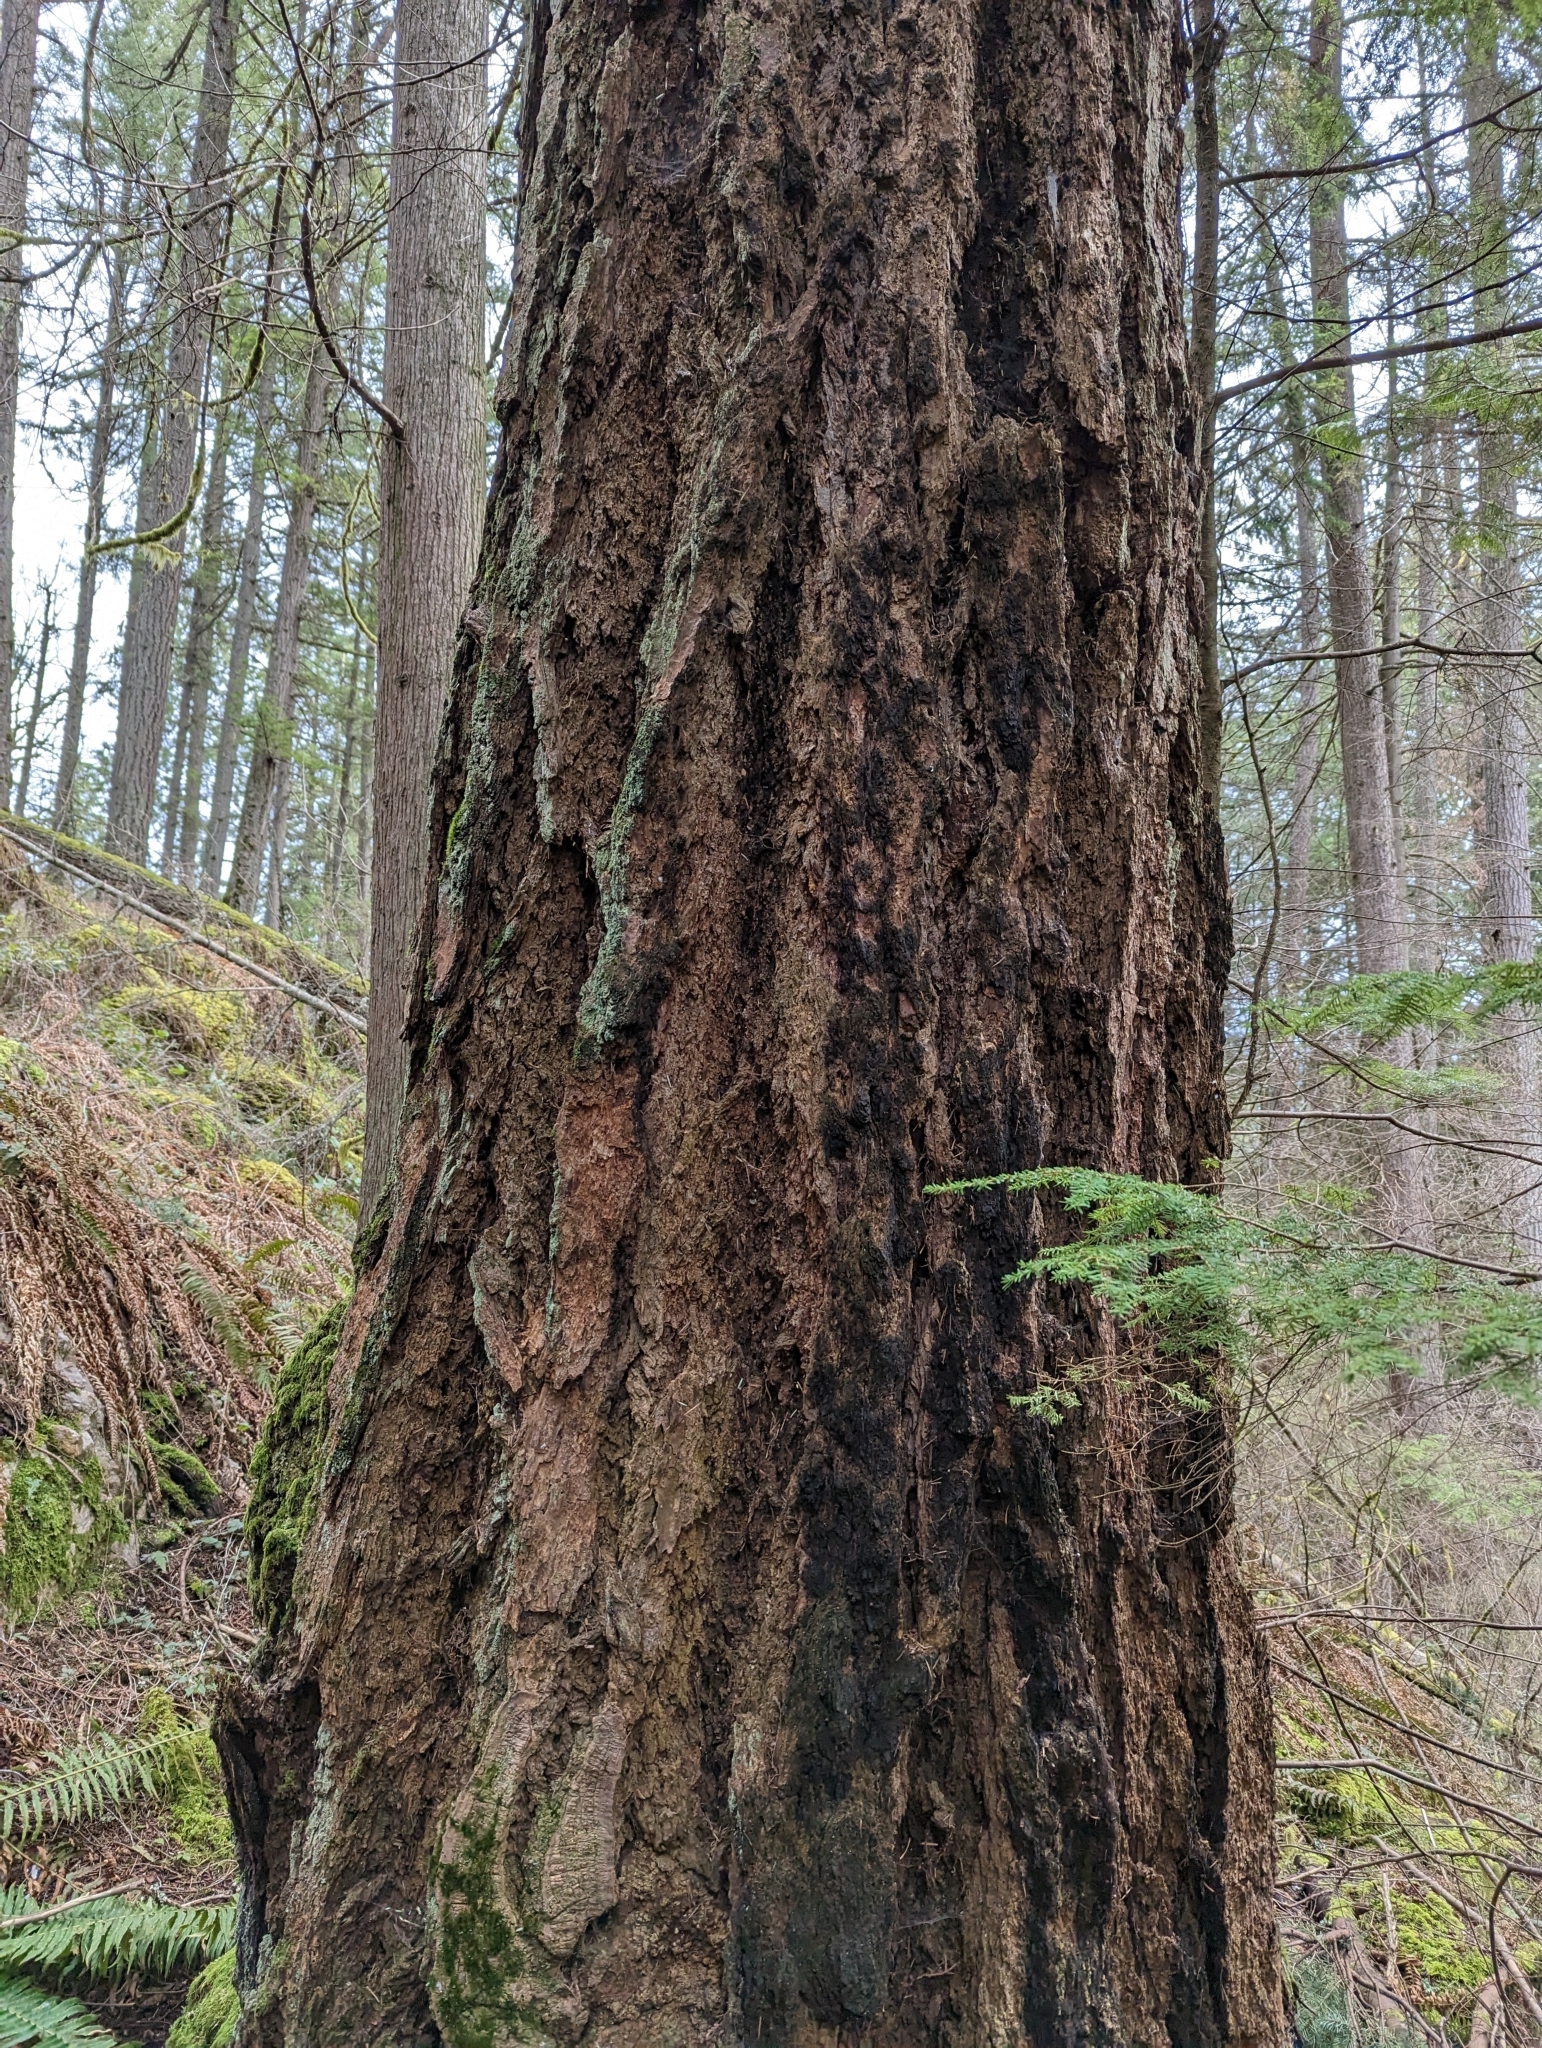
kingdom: Plantae
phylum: Tracheophyta
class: Pinopsida
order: Pinales
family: Pinaceae
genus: Pseudotsuga
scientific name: Pseudotsuga menziesii
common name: Douglas fir
